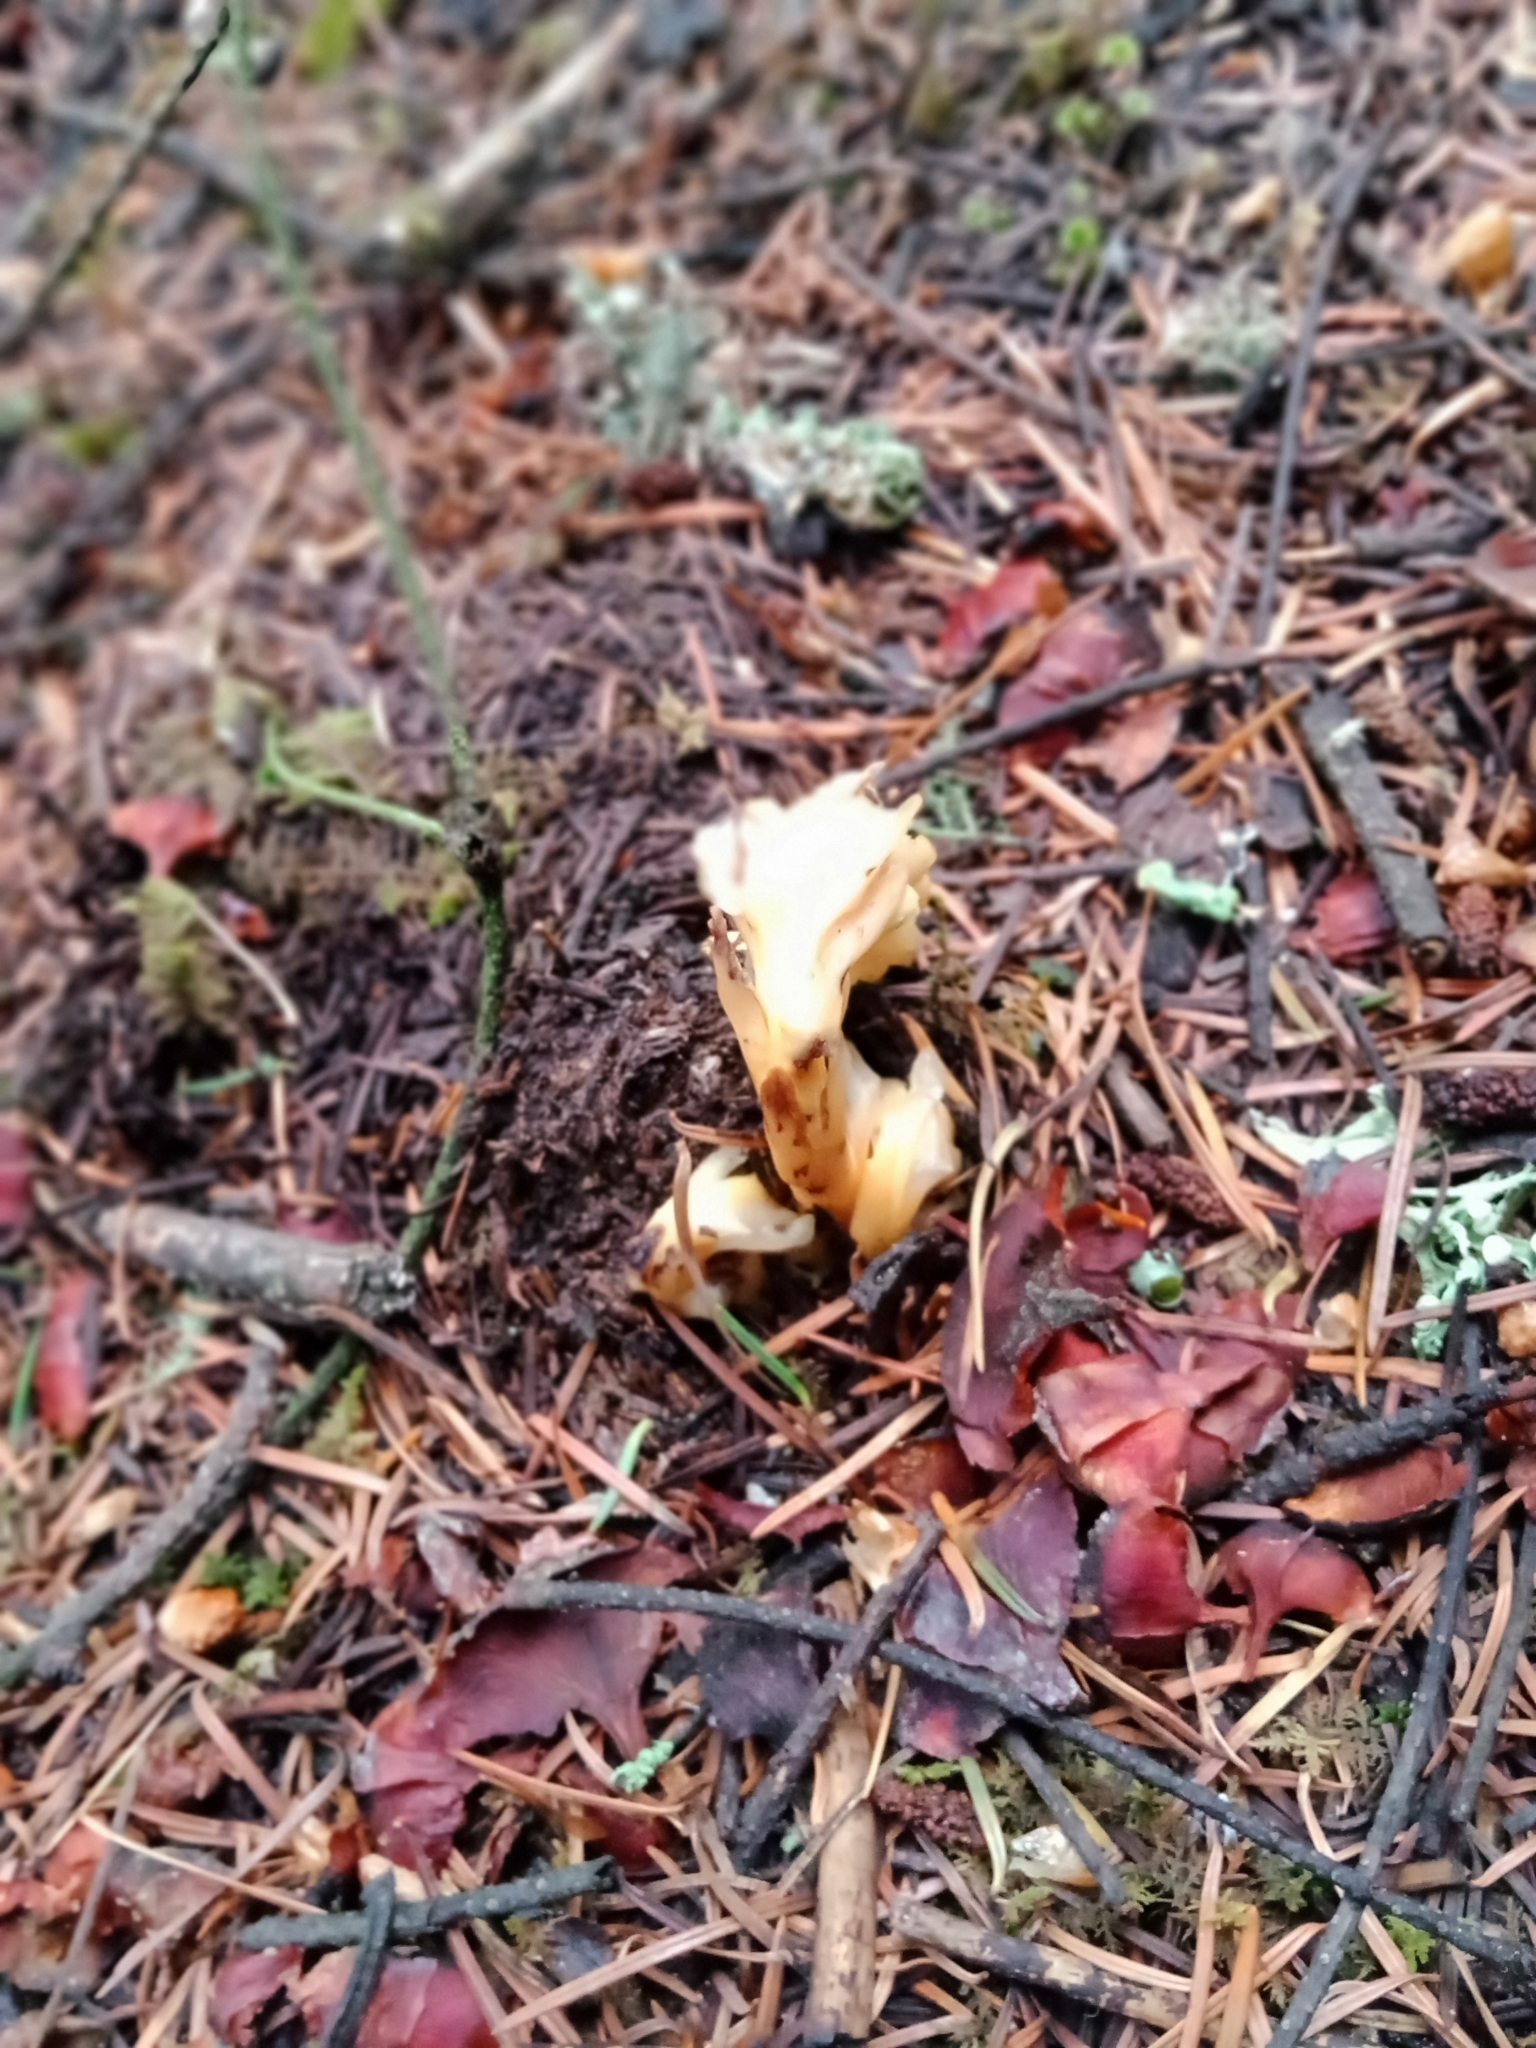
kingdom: Plantae
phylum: Tracheophyta
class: Magnoliopsida
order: Ericales
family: Ericaceae
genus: Hypopitys
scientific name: Hypopitys monotropa
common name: Yellow bird's-nest
